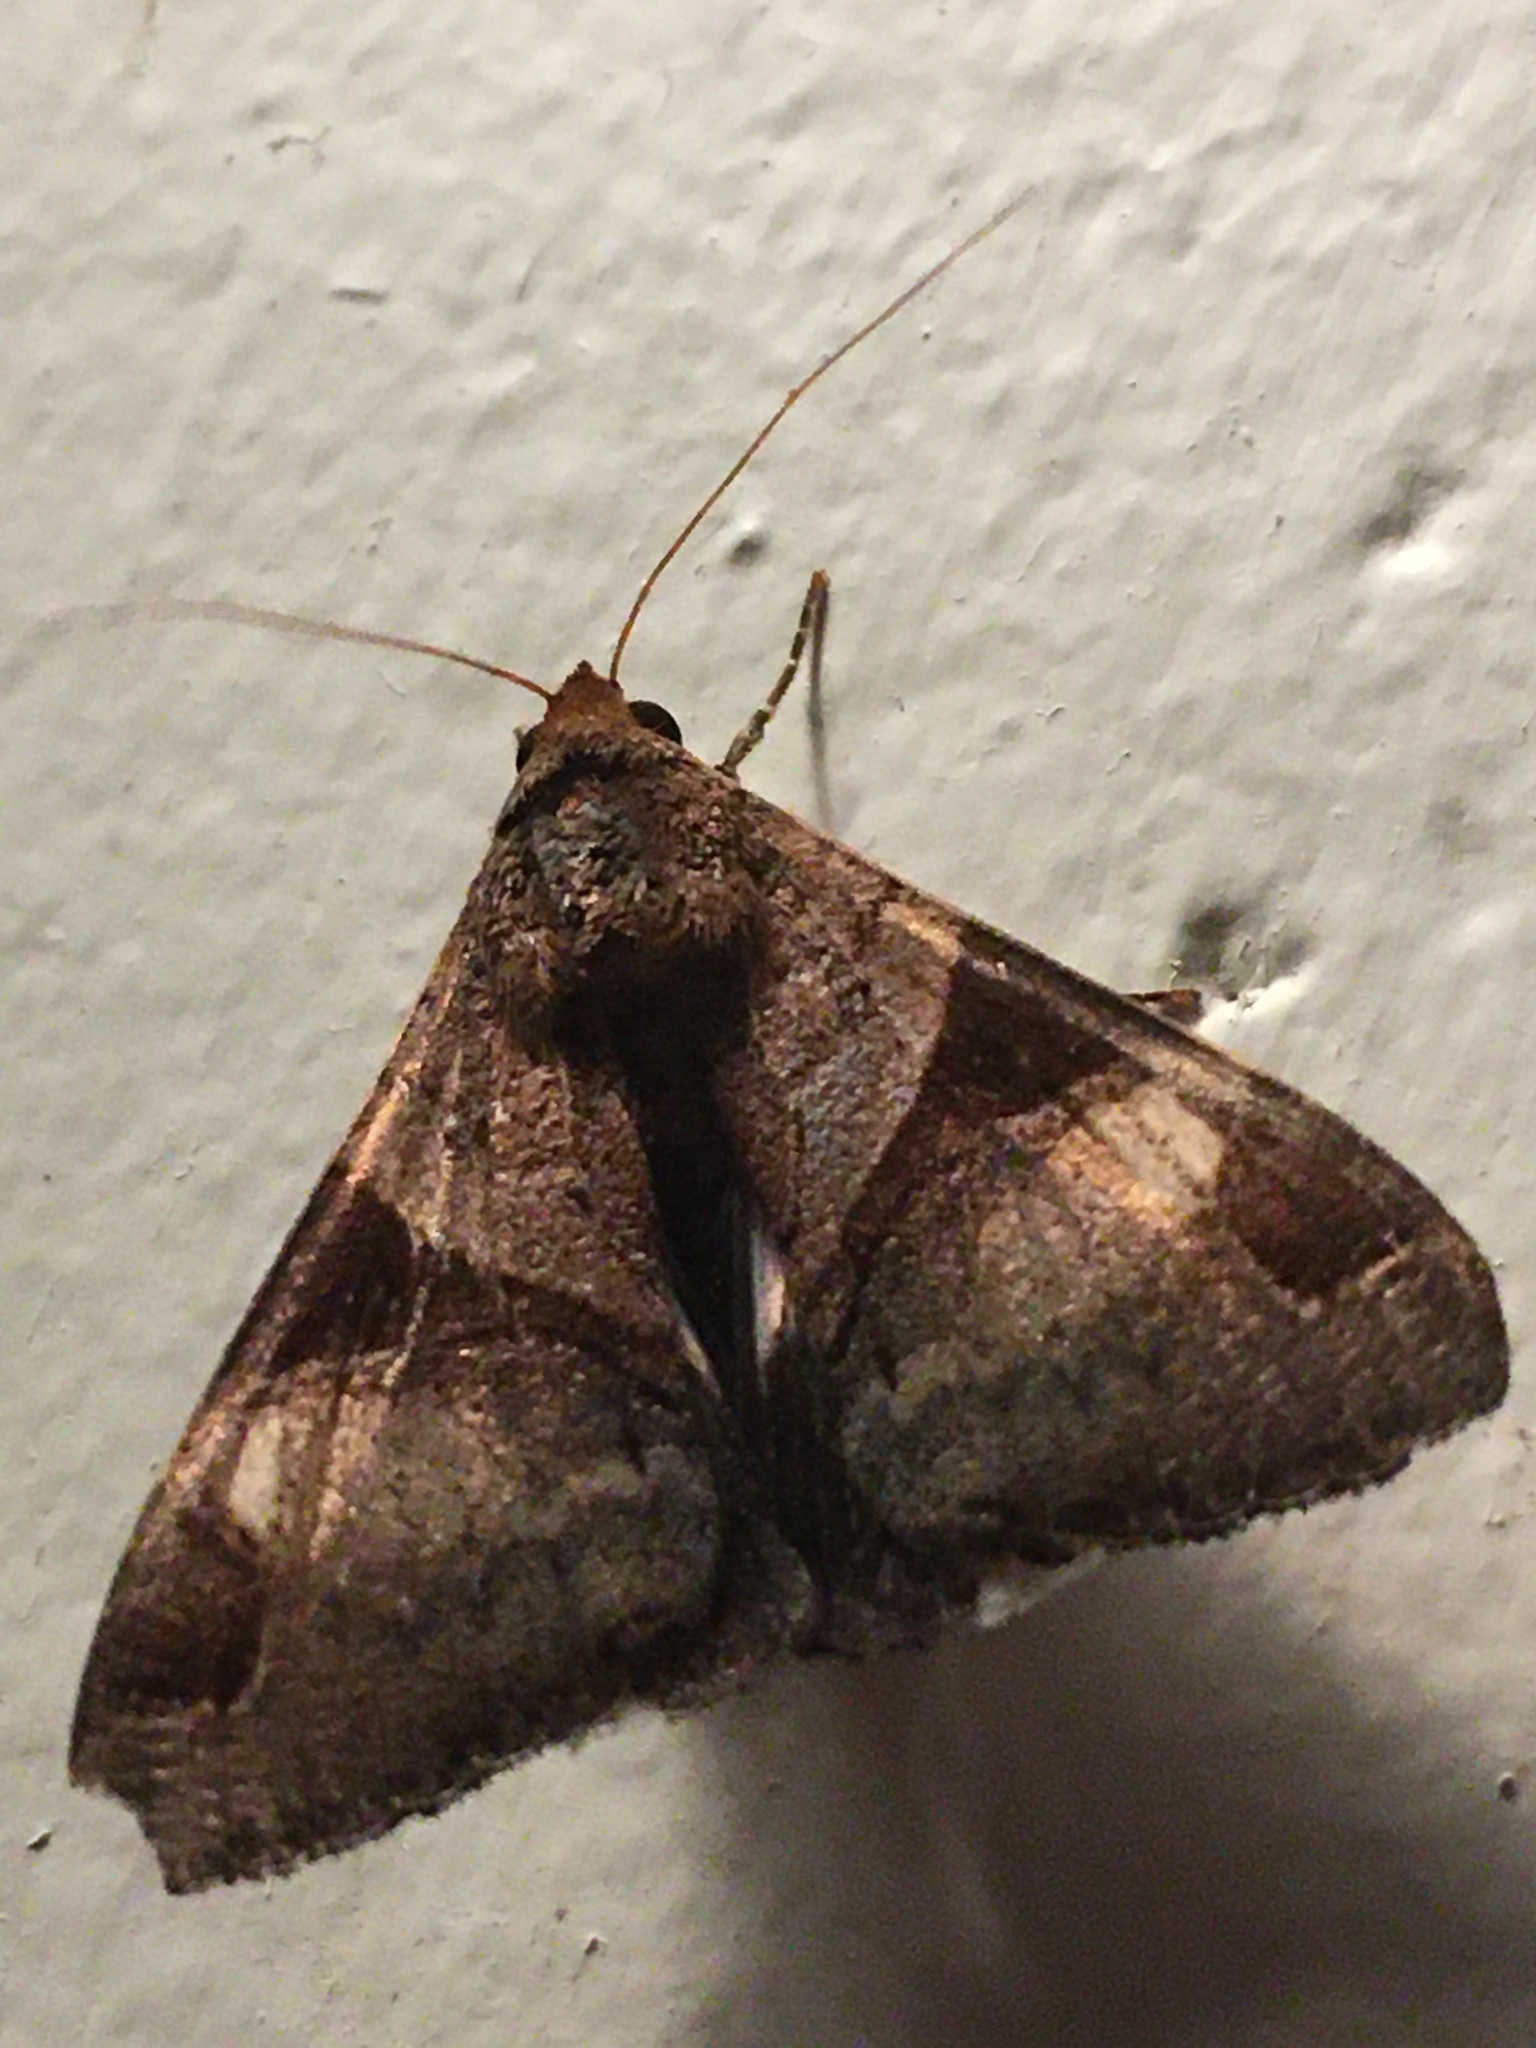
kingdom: Animalia
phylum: Arthropoda
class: Insecta
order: Lepidoptera
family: Erebidae
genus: Melipotis
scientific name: Melipotis fasciolaris
